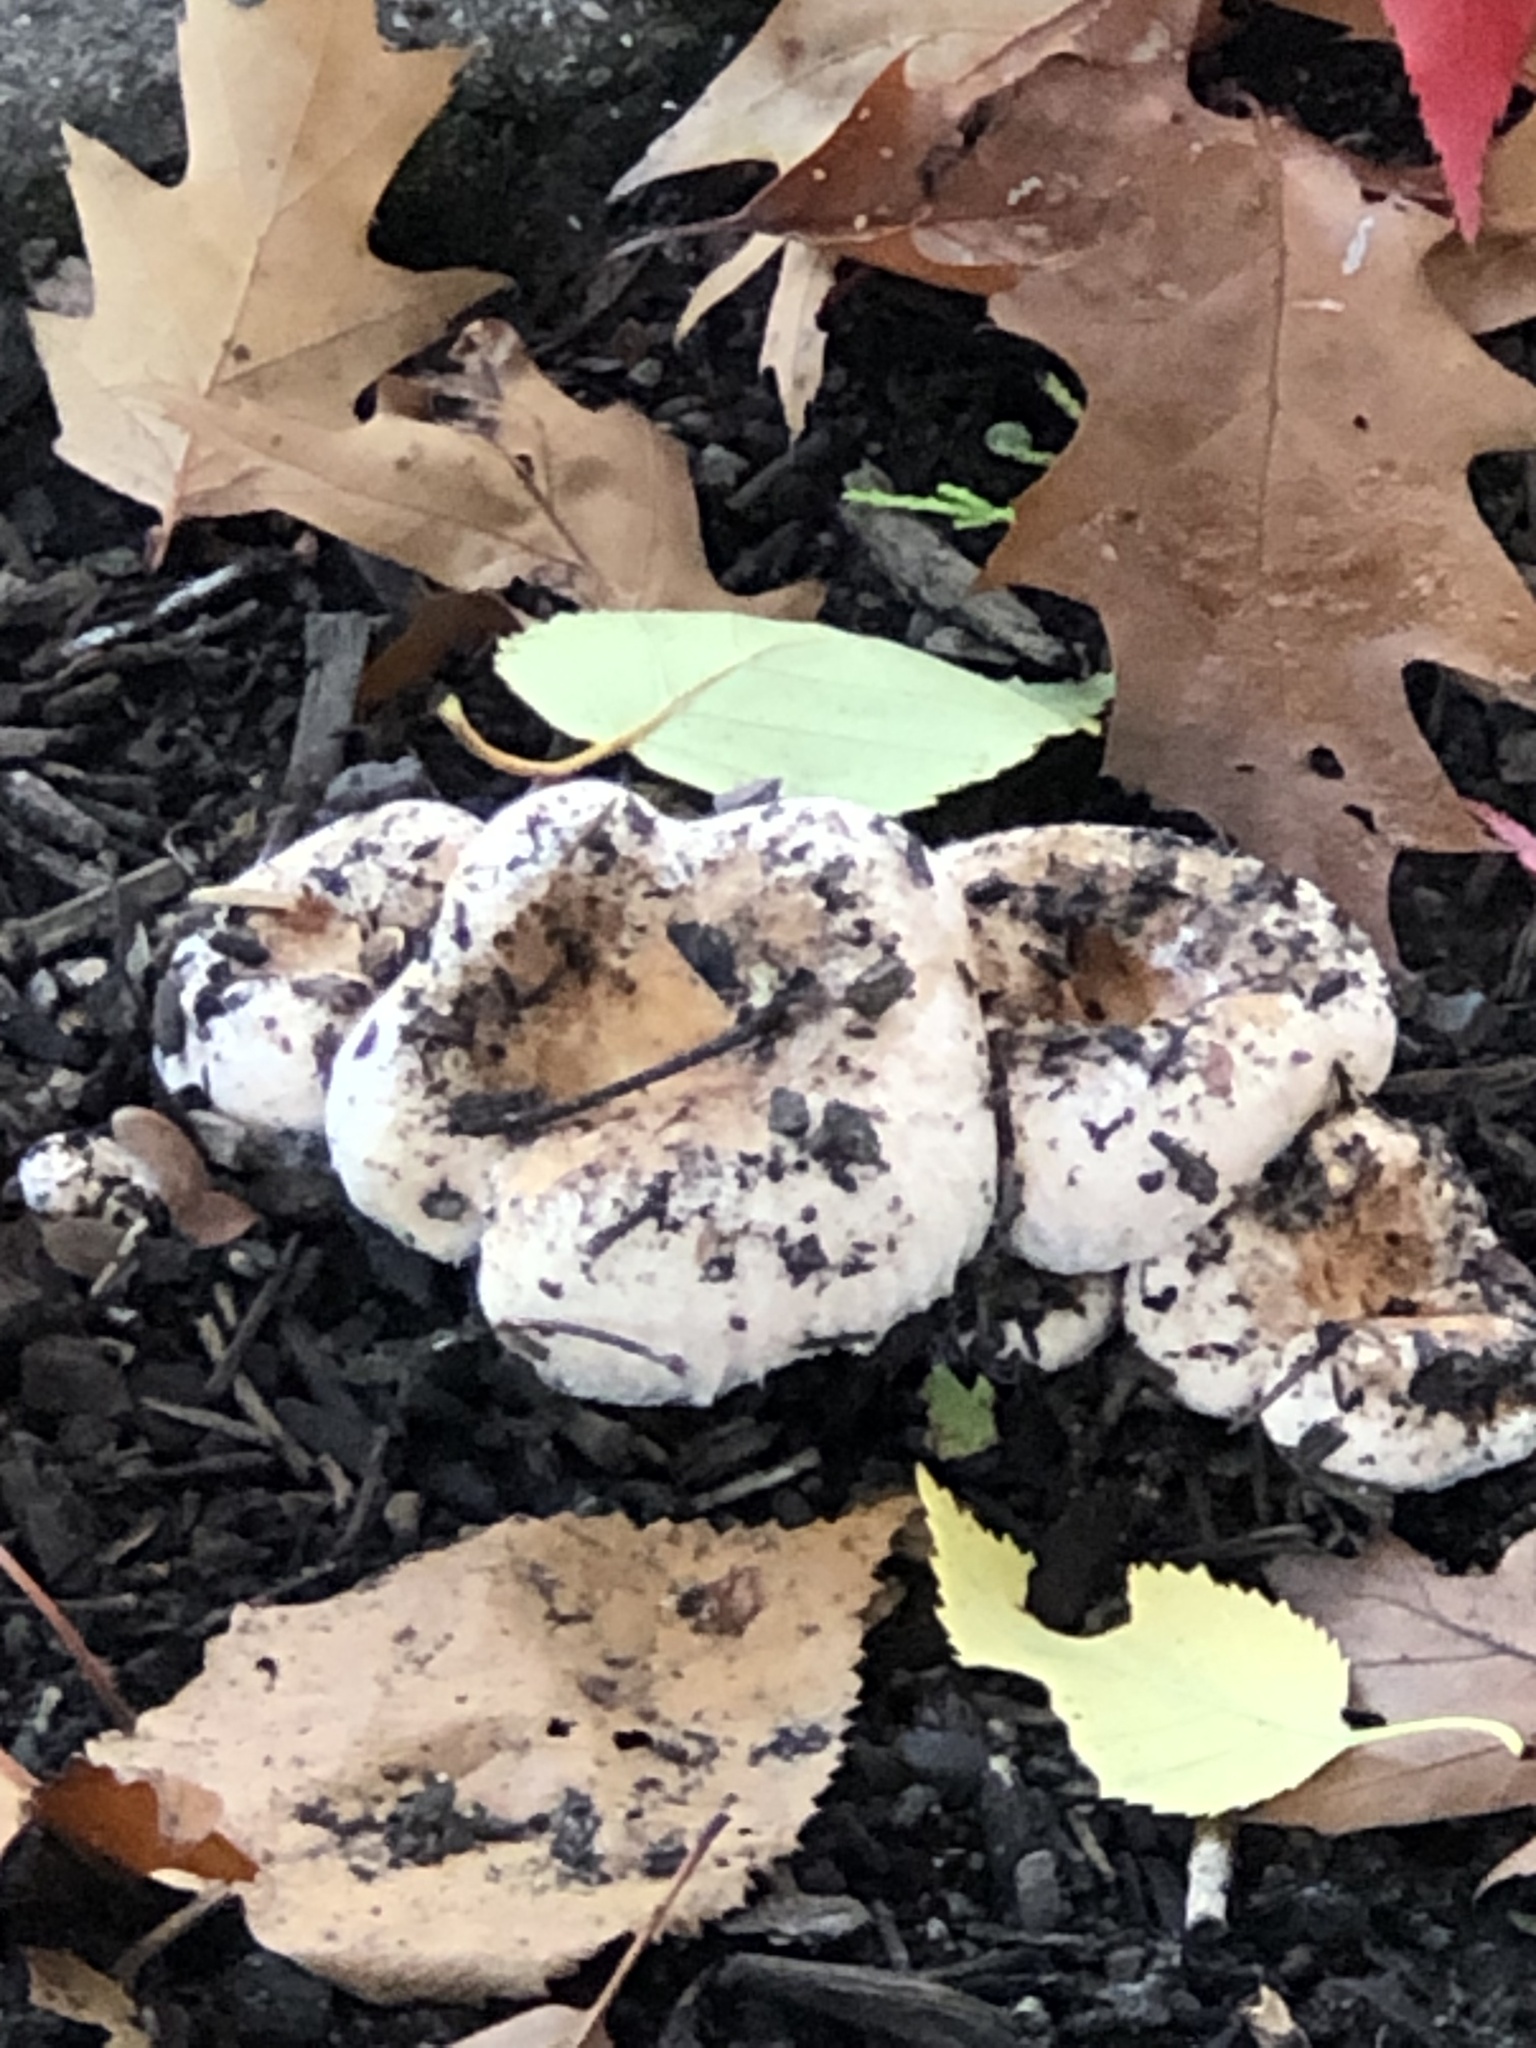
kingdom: Fungi
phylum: Basidiomycota
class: Agaricomycetes
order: Russulales
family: Russulaceae
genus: Lactarius
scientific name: Lactarius pubescens
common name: Bearded milkcap
